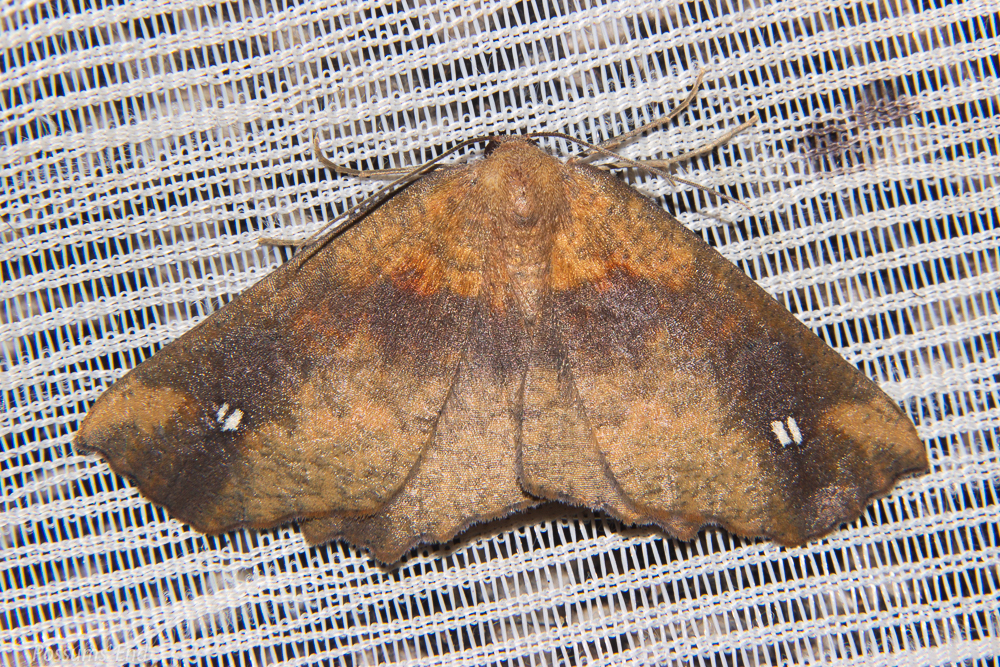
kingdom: Animalia
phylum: Arthropoda
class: Insecta
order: Lepidoptera
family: Geometridae
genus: Xyridacma
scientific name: Xyridacma ustaria
